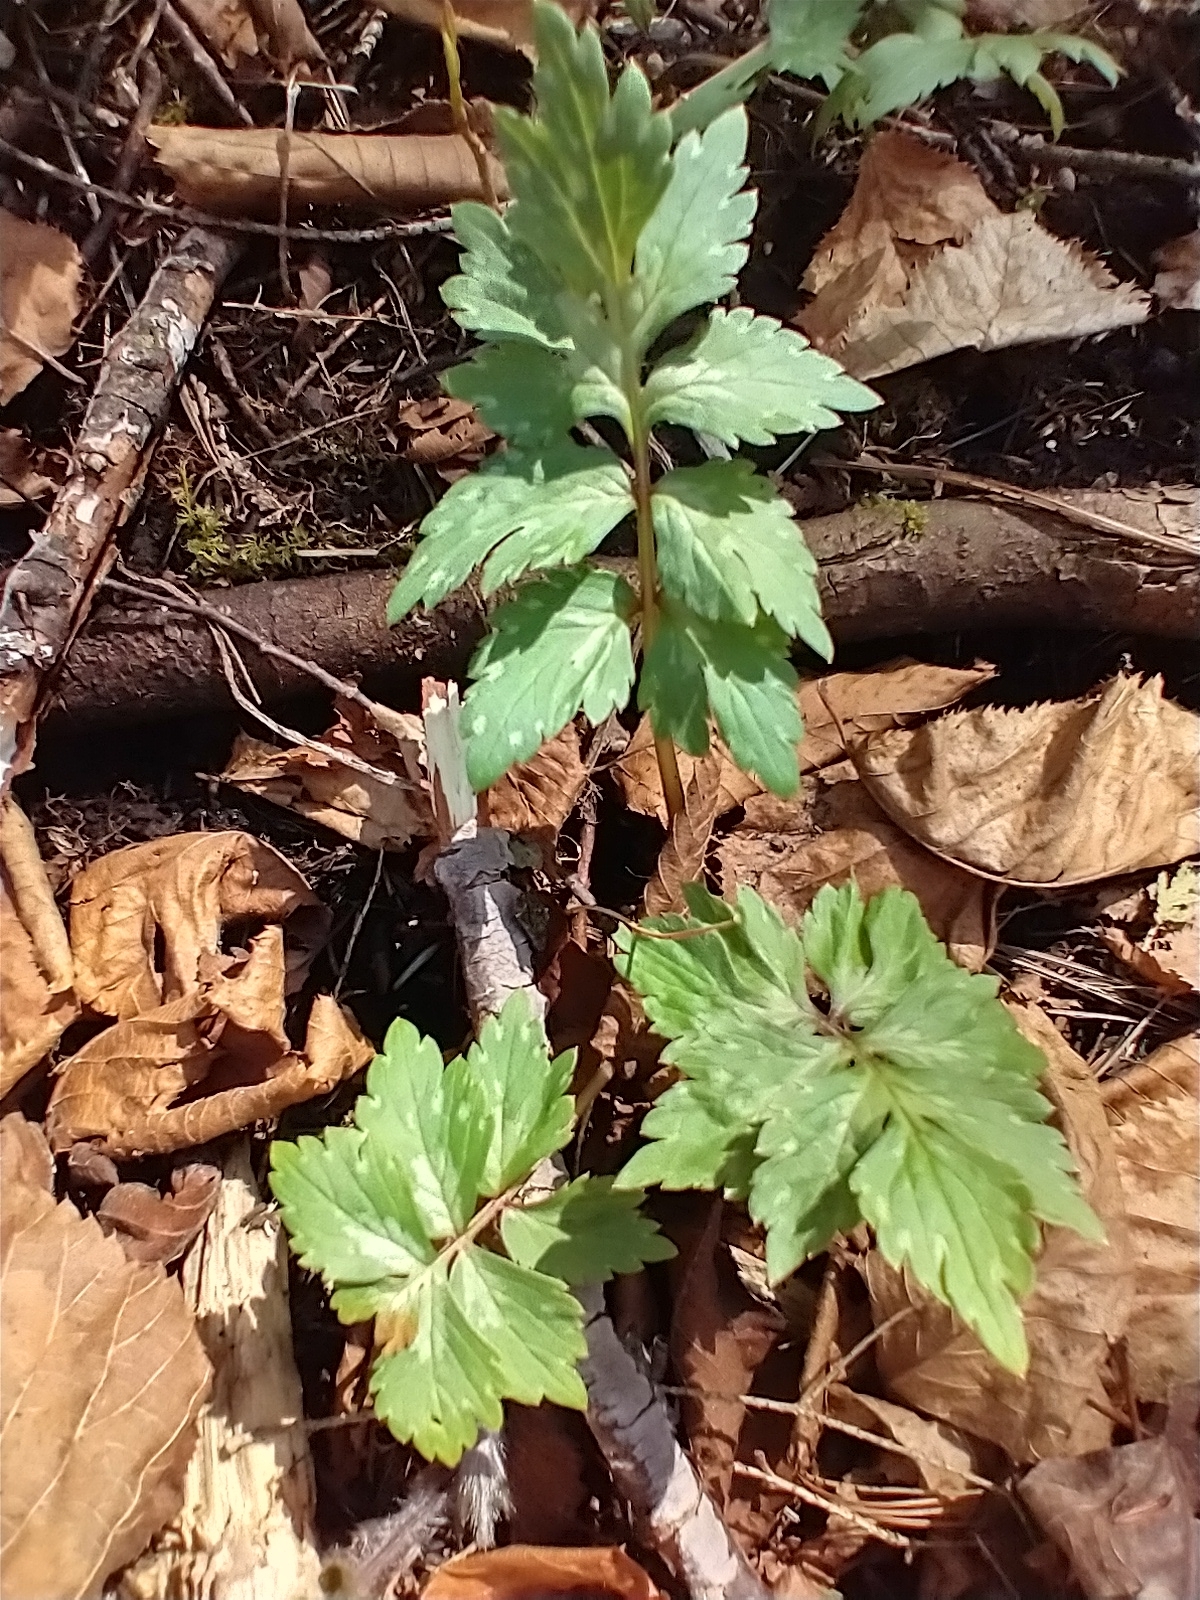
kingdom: Plantae
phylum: Tracheophyta
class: Magnoliopsida
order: Boraginales
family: Hydrophyllaceae
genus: Hydrophyllum
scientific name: Hydrophyllum virginianum
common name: Virginia waterleaf
